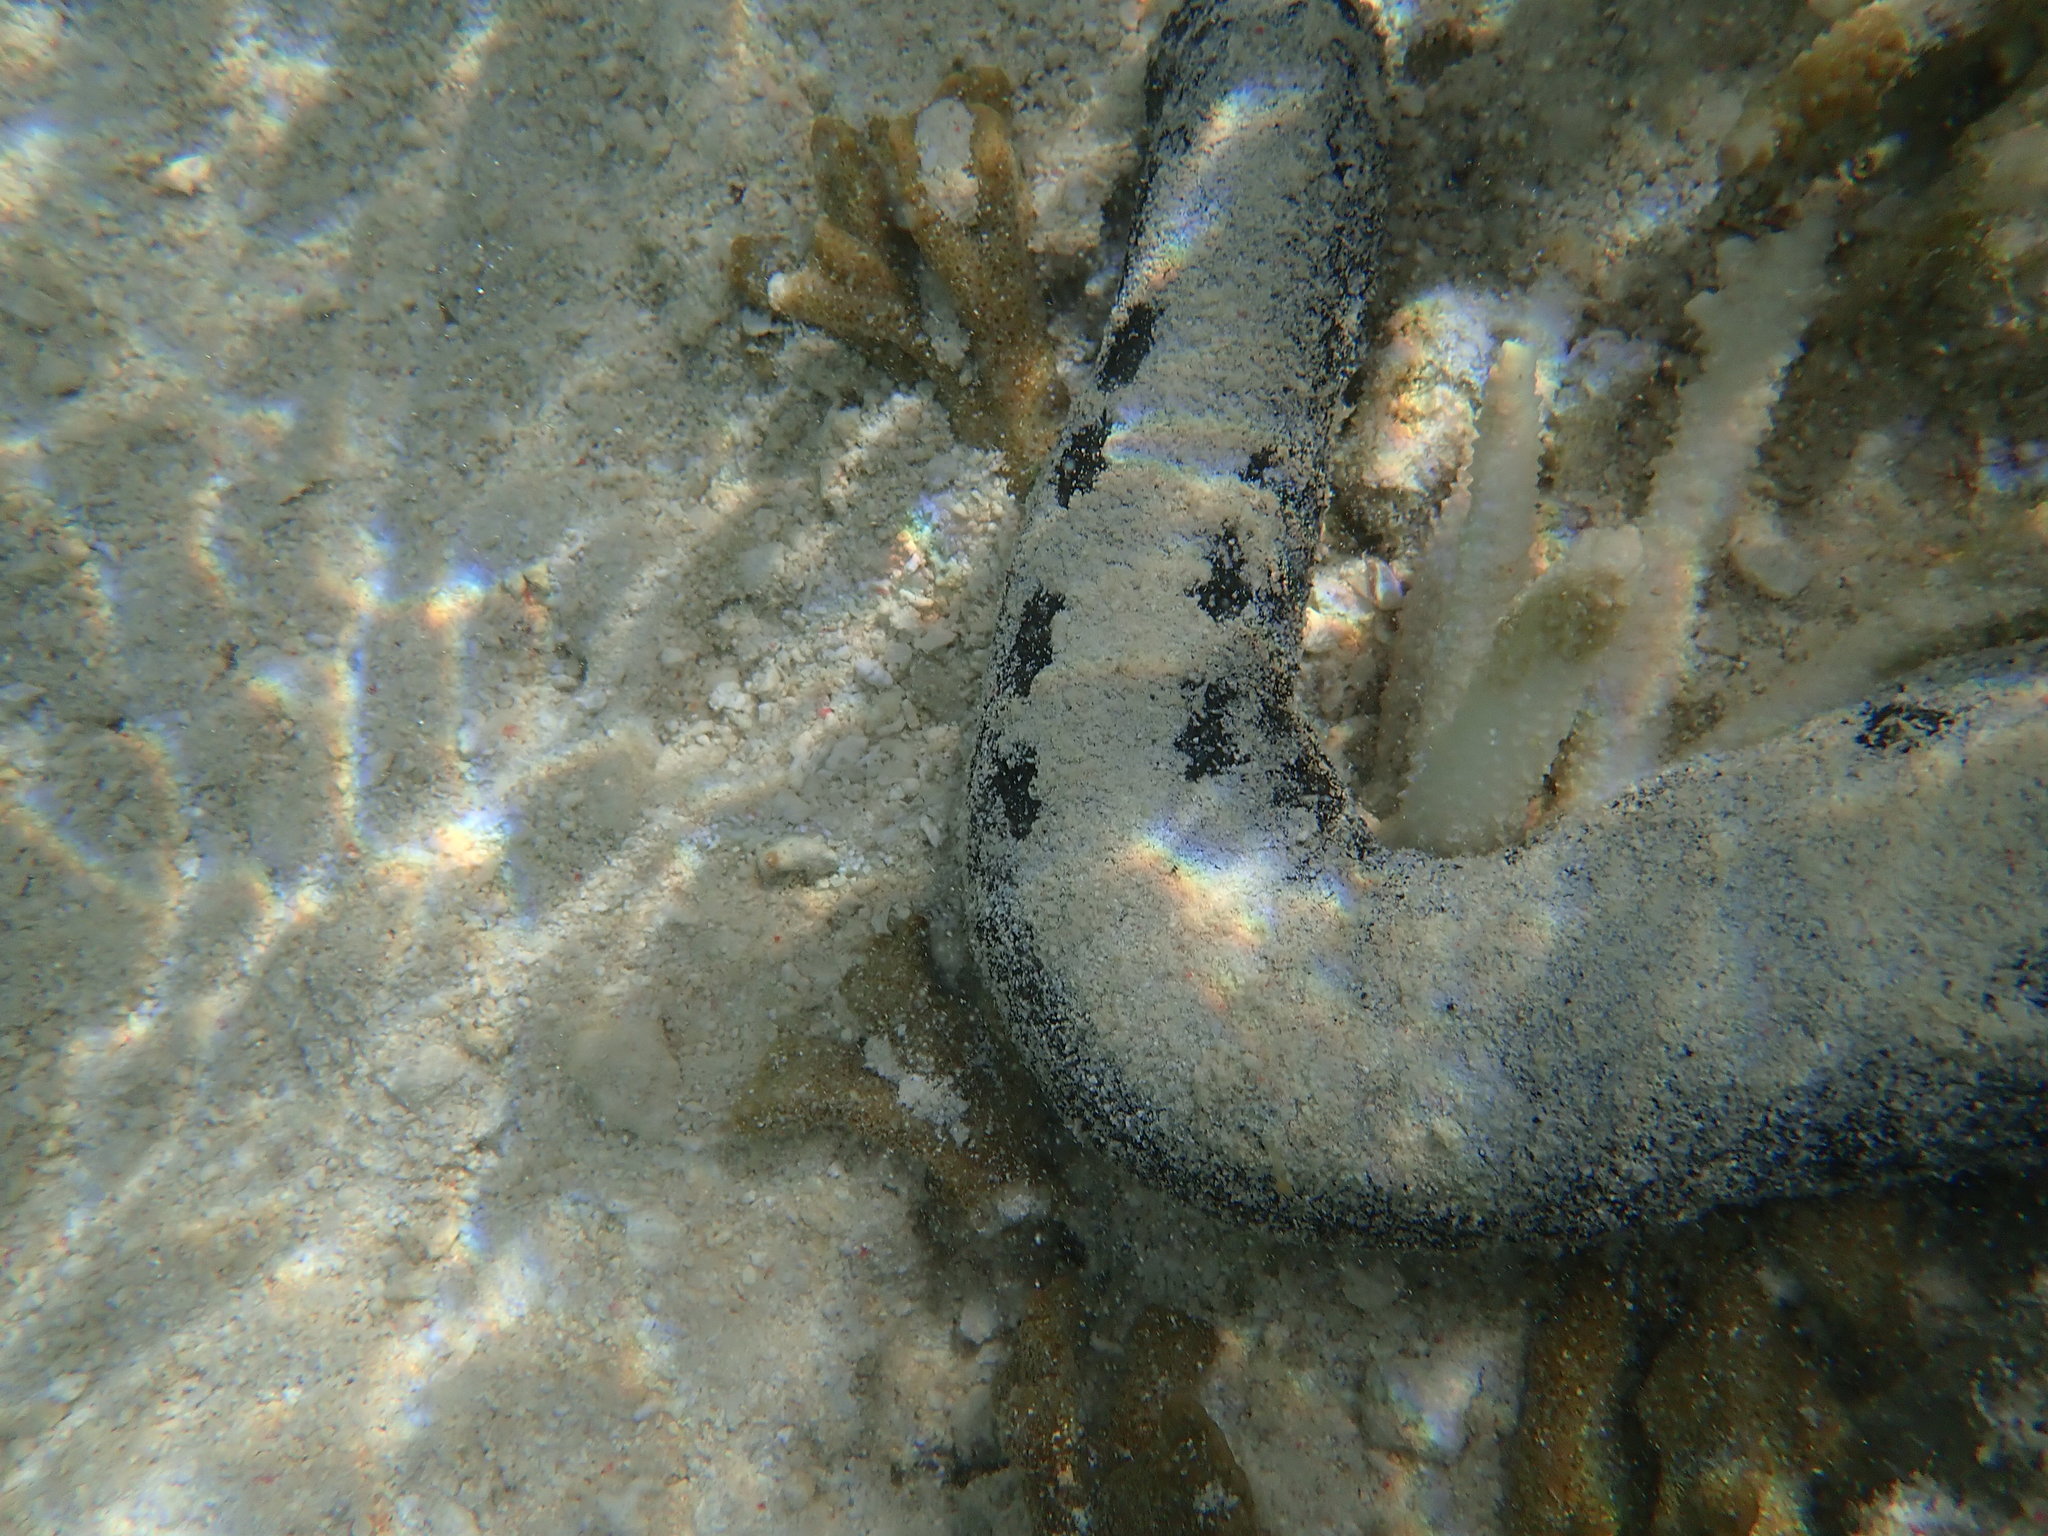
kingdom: Animalia
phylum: Echinodermata
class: Holothuroidea
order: Holothuriida
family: Holothuriidae
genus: Holothuria
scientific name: Holothuria atra
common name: Lollyfish
